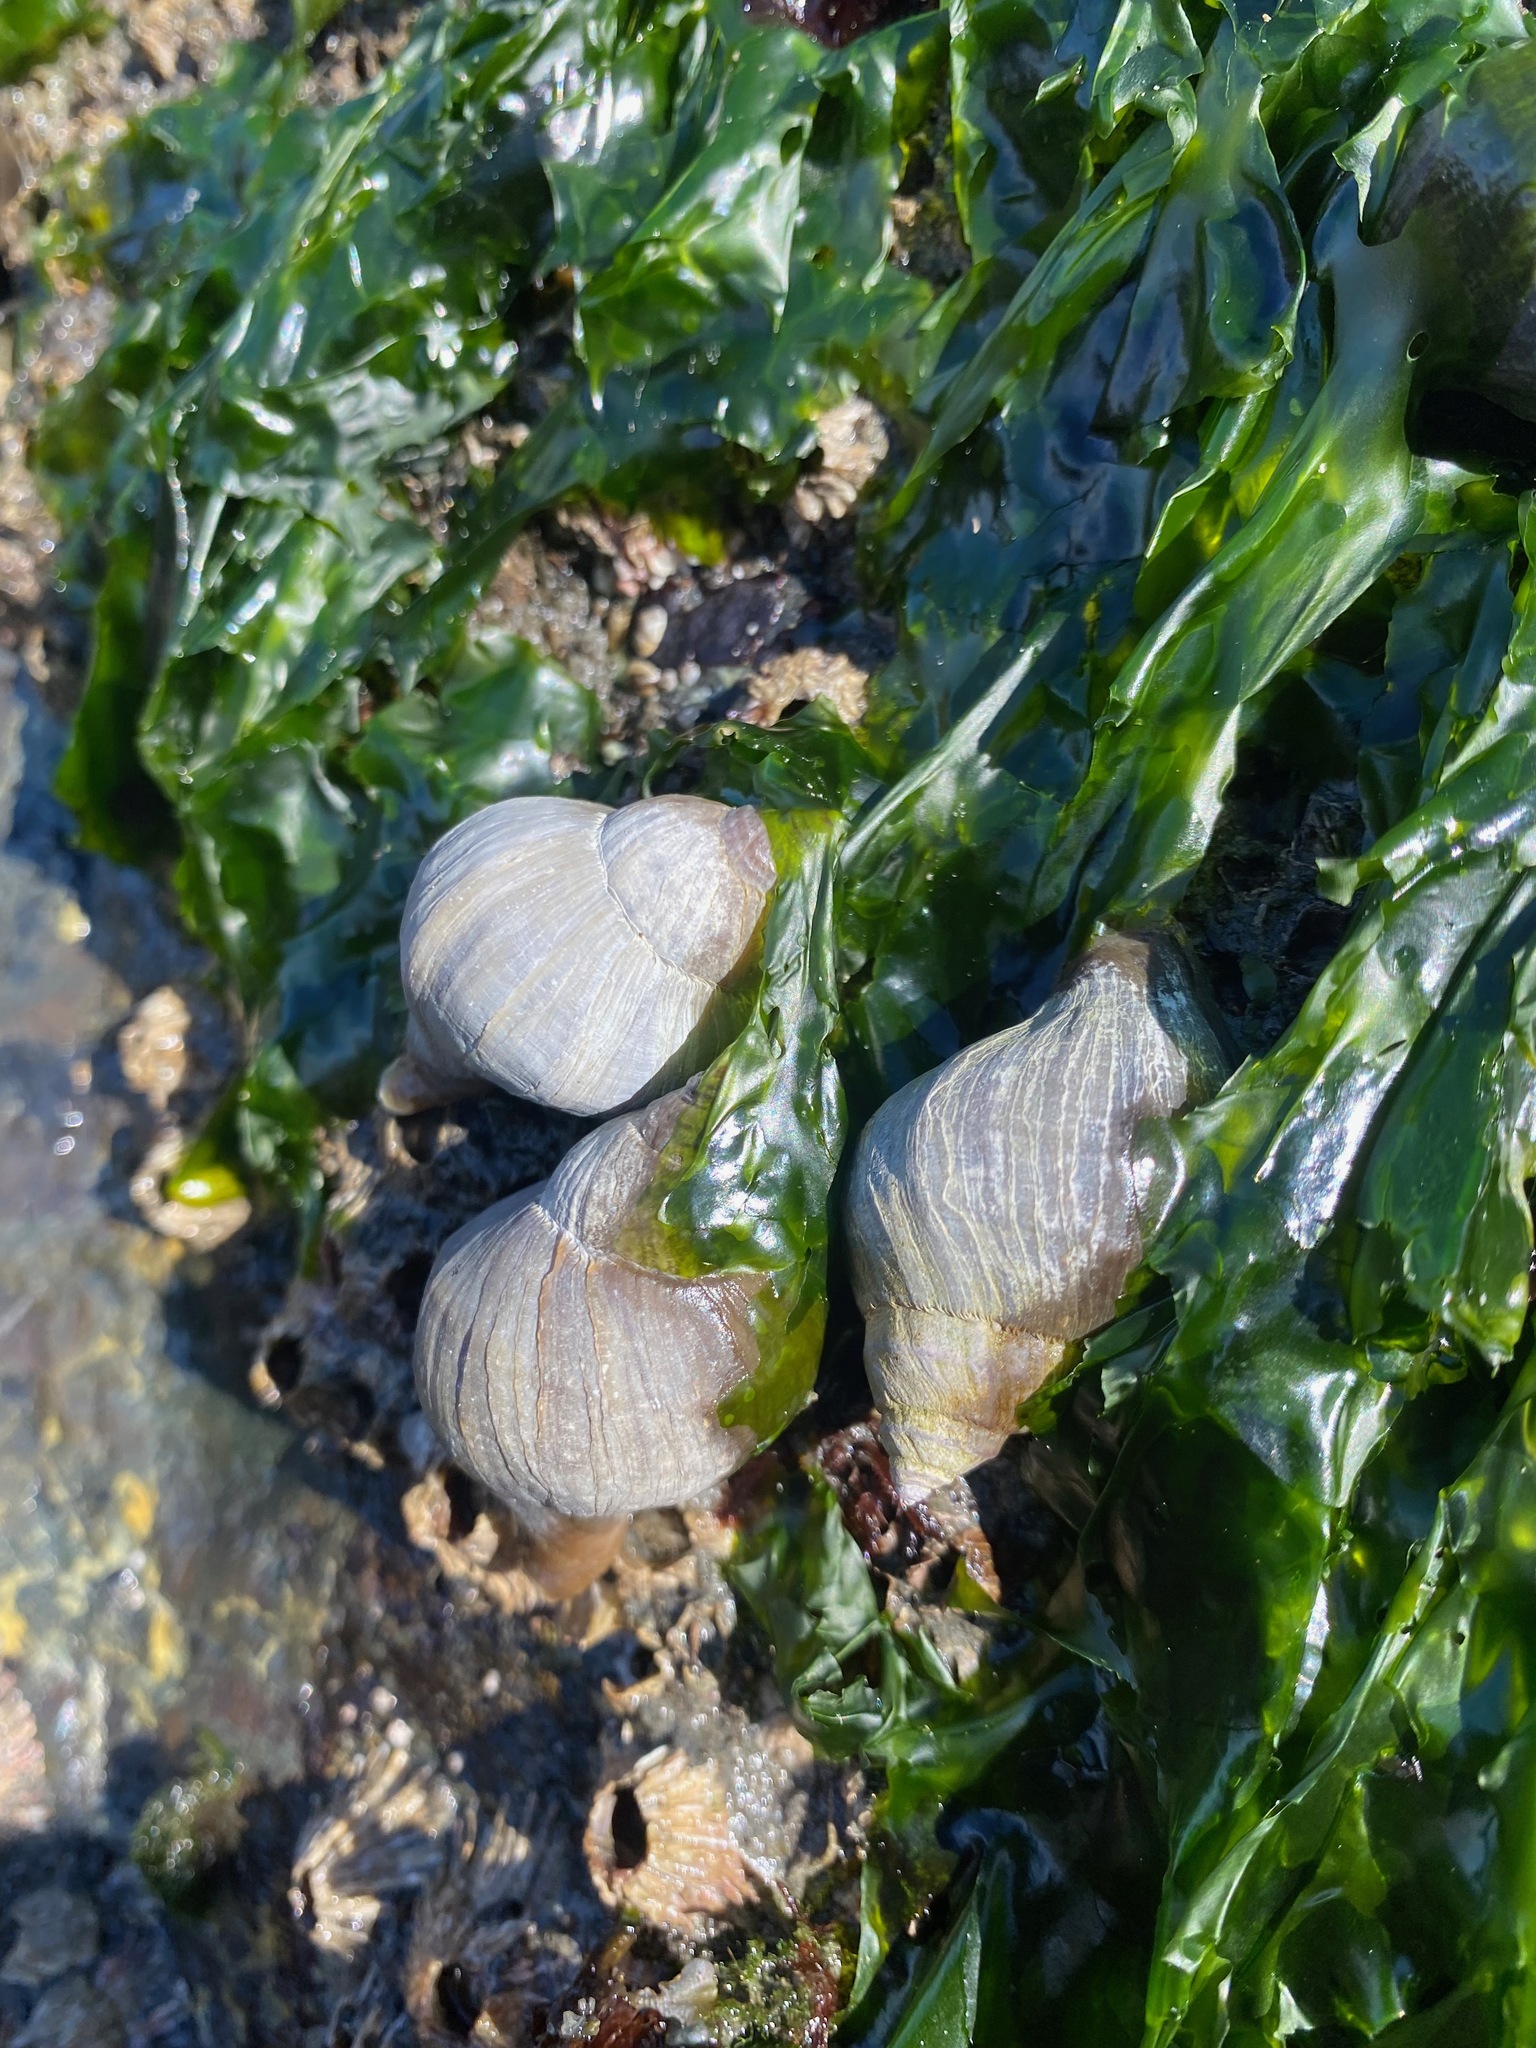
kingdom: Animalia
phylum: Mollusca
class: Gastropoda
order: Neogastropoda
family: Muricidae
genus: Nucella
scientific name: Nucella lamellosa
